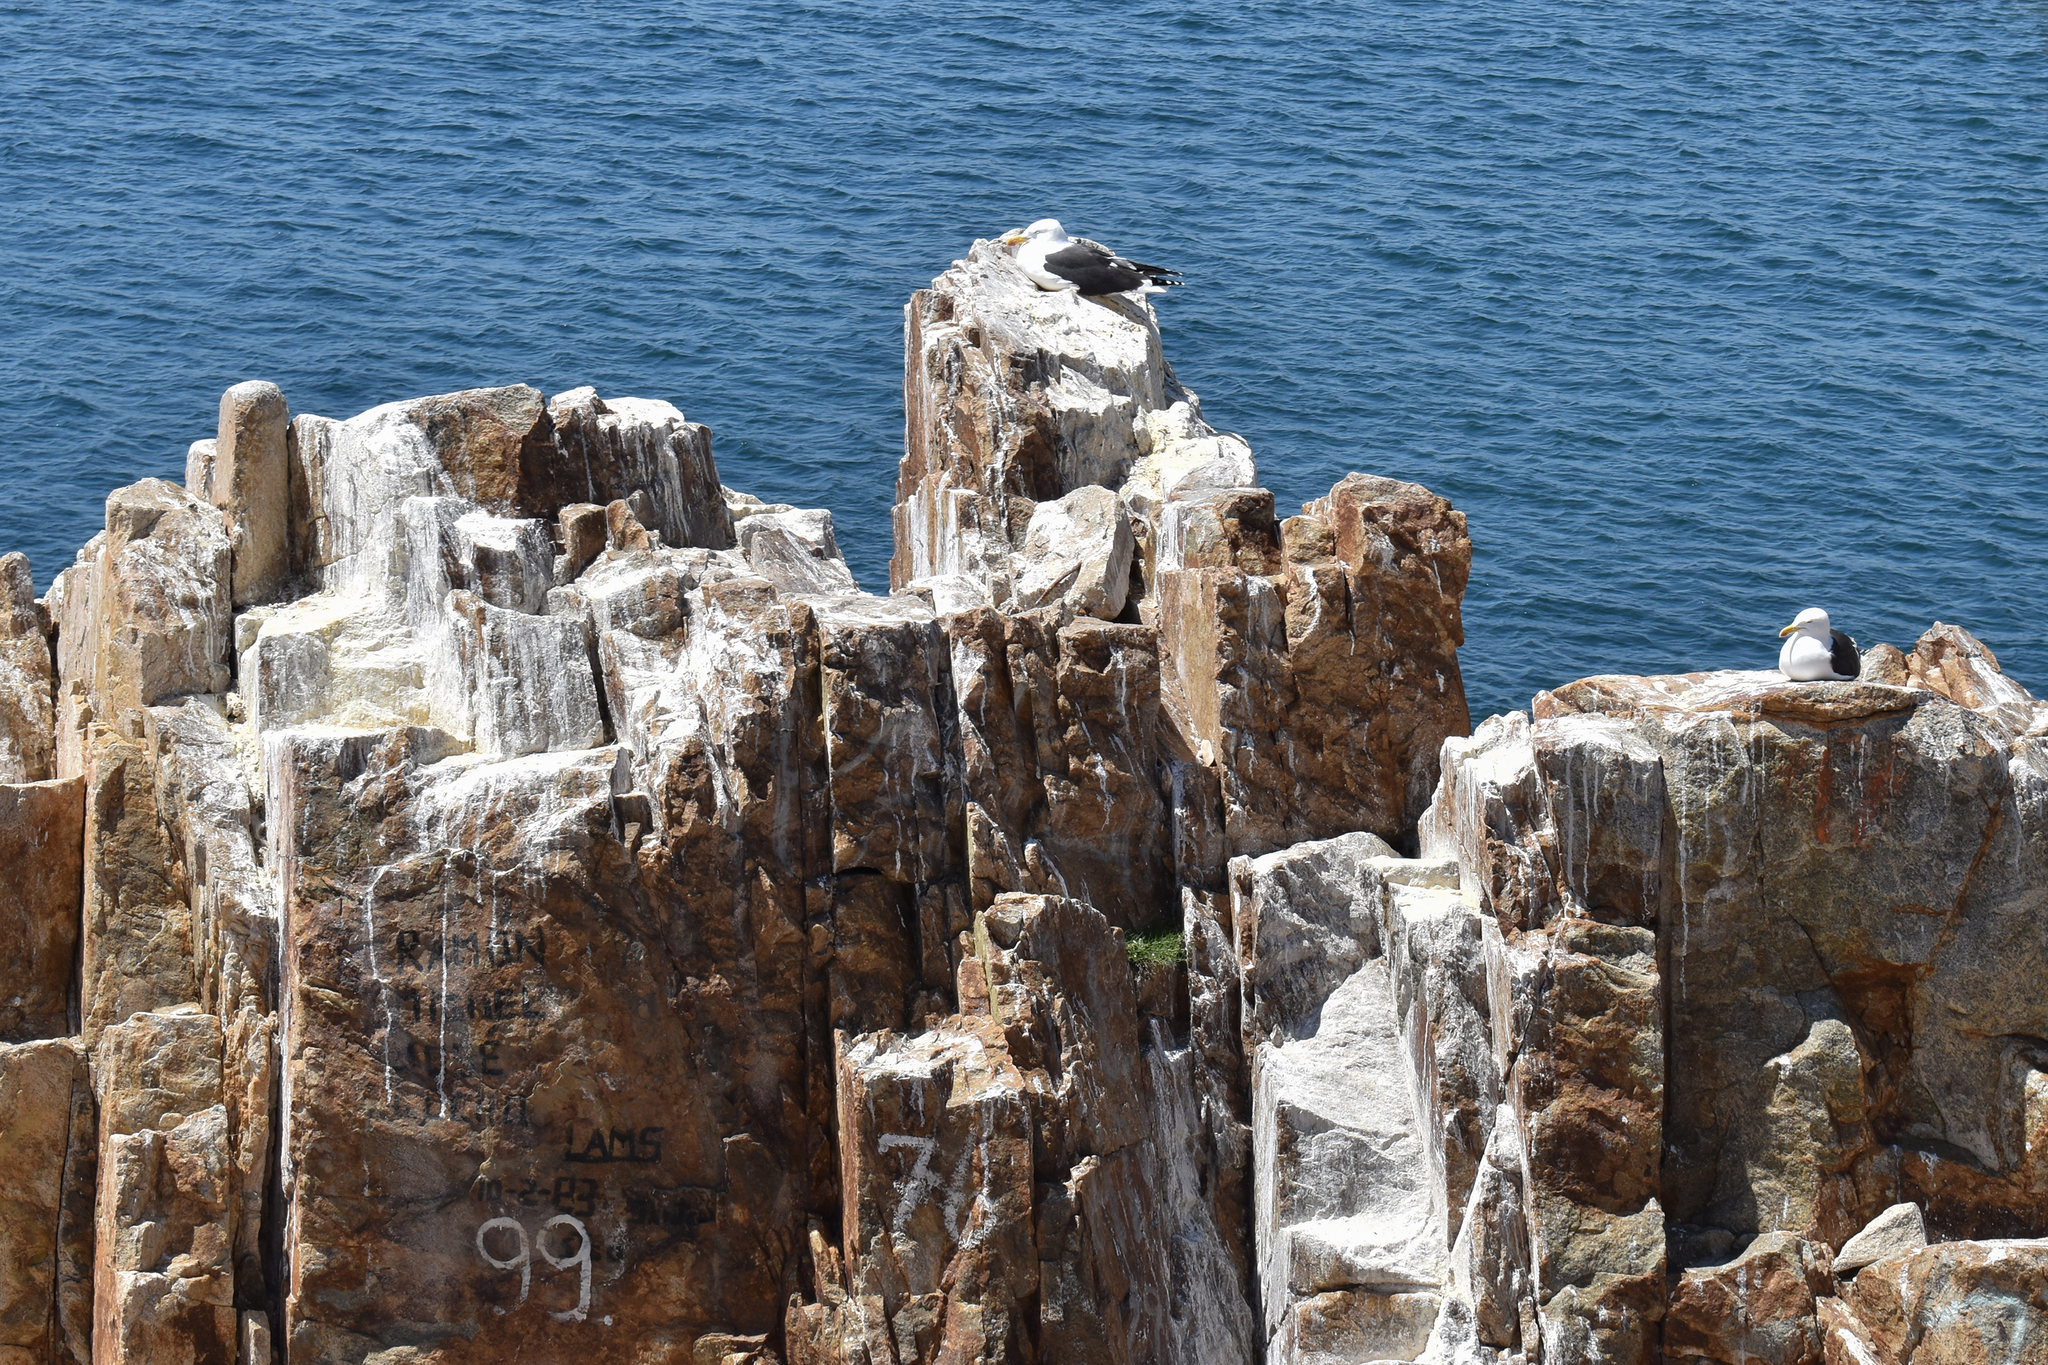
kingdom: Animalia
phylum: Chordata
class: Aves
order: Charadriiformes
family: Laridae
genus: Larus
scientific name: Larus dominicanus
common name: Kelp gull
